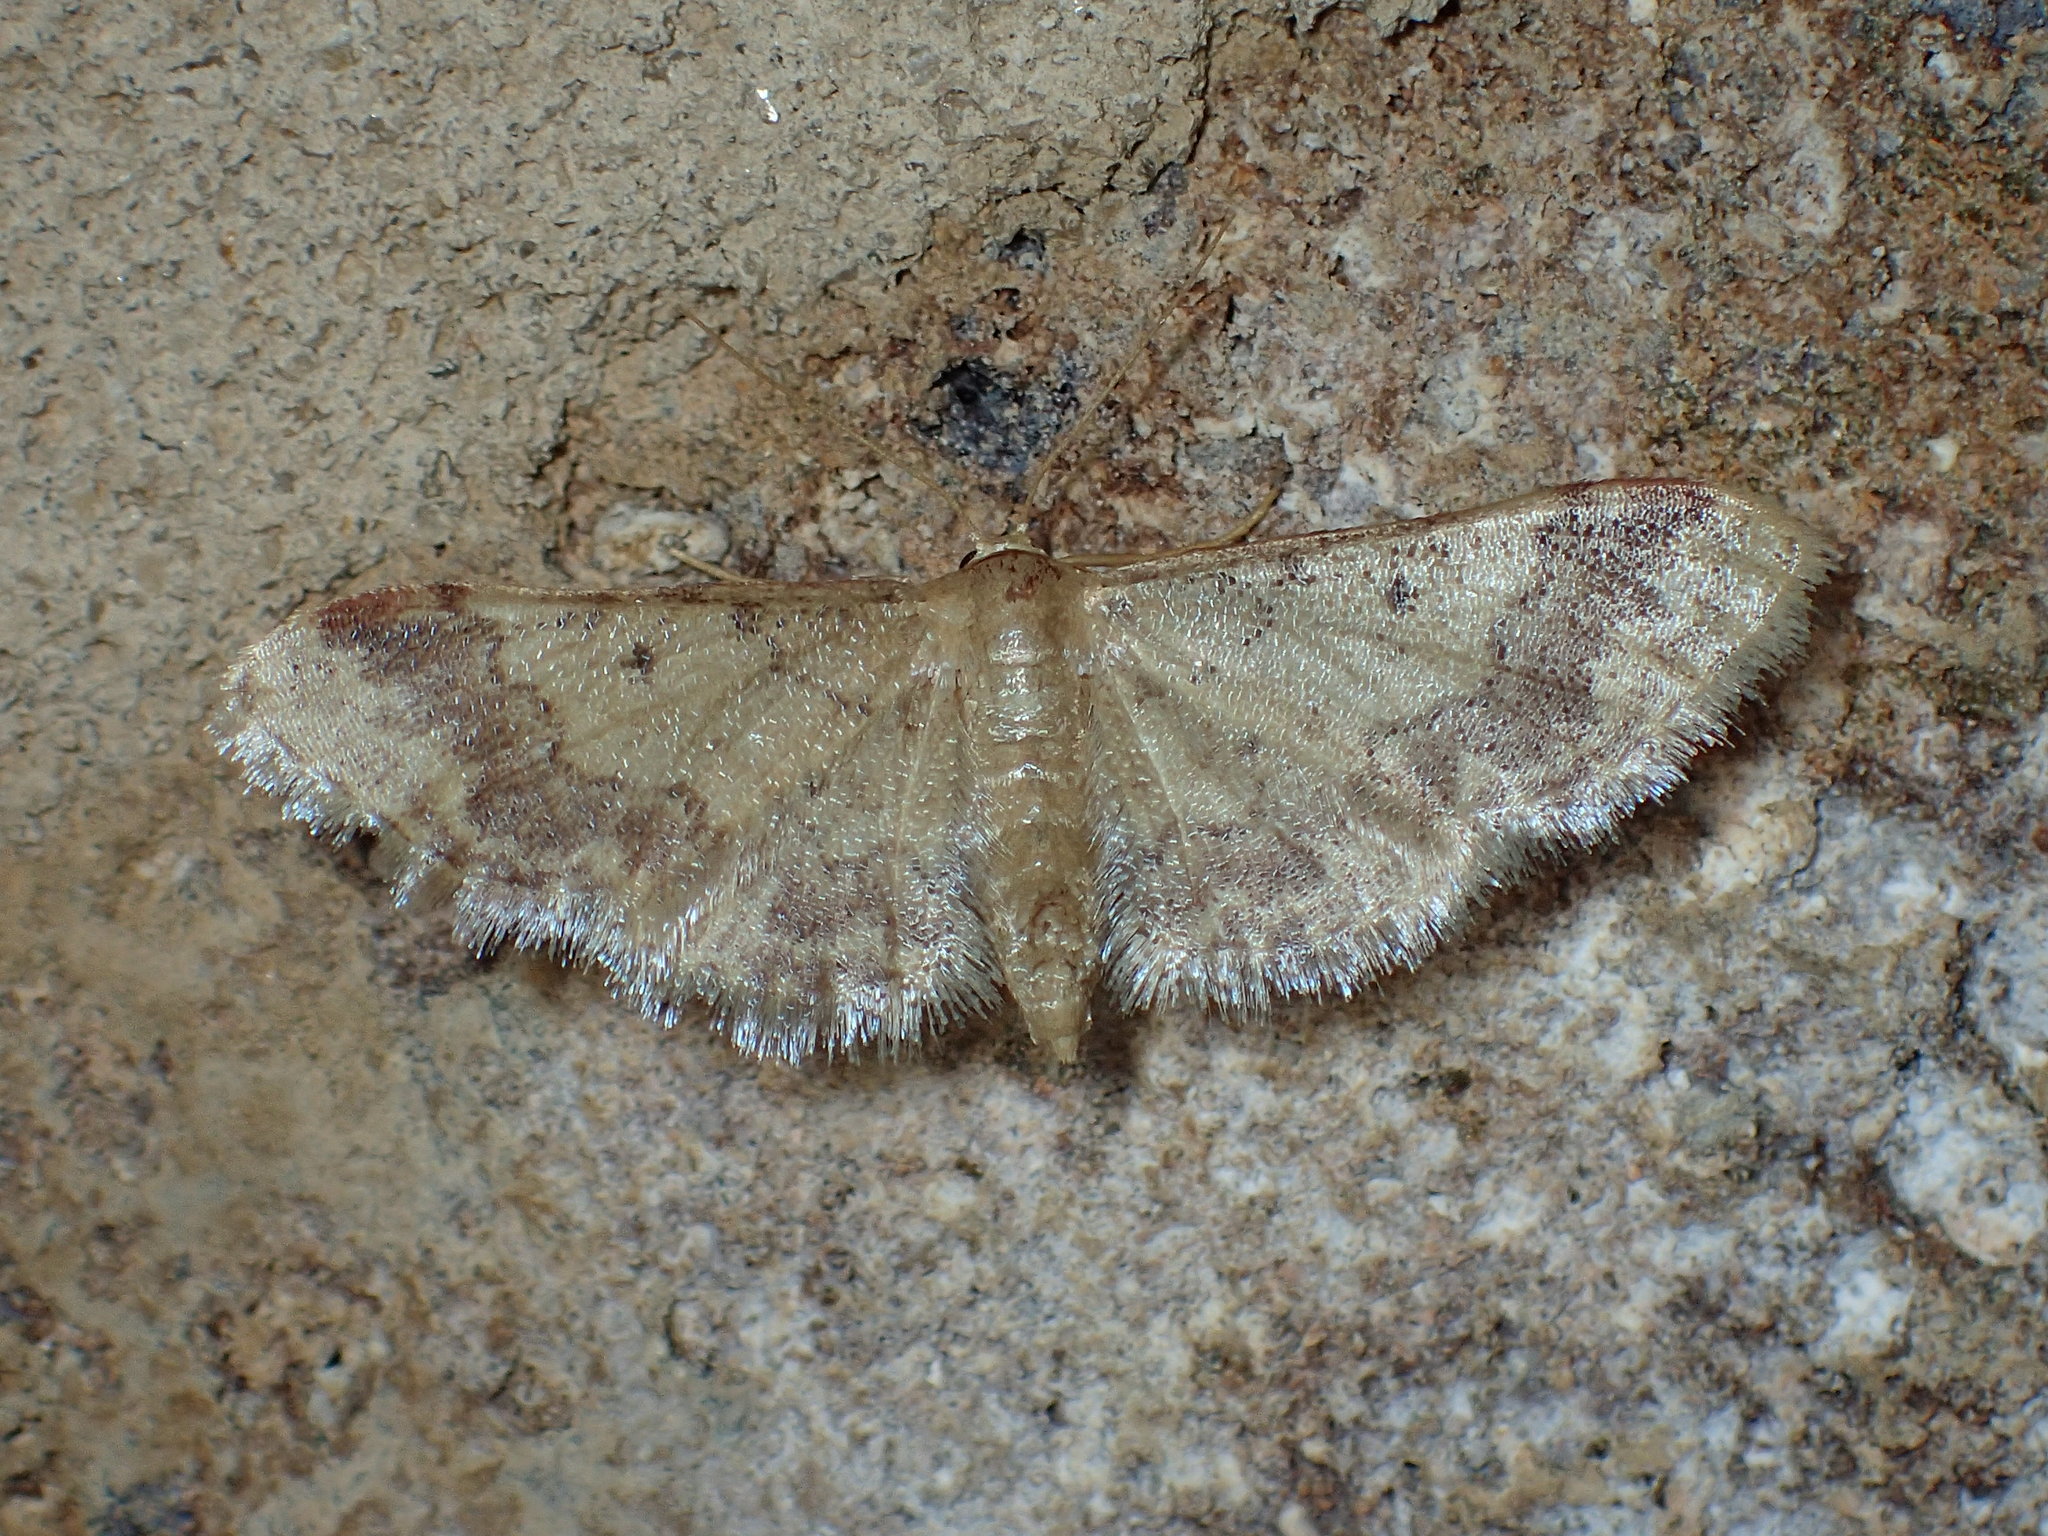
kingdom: Animalia
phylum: Arthropoda
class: Insecta
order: Lepidoptera
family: Geometridae
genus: Idaea
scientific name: Idaea furciferata
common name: Notch-winged wave
